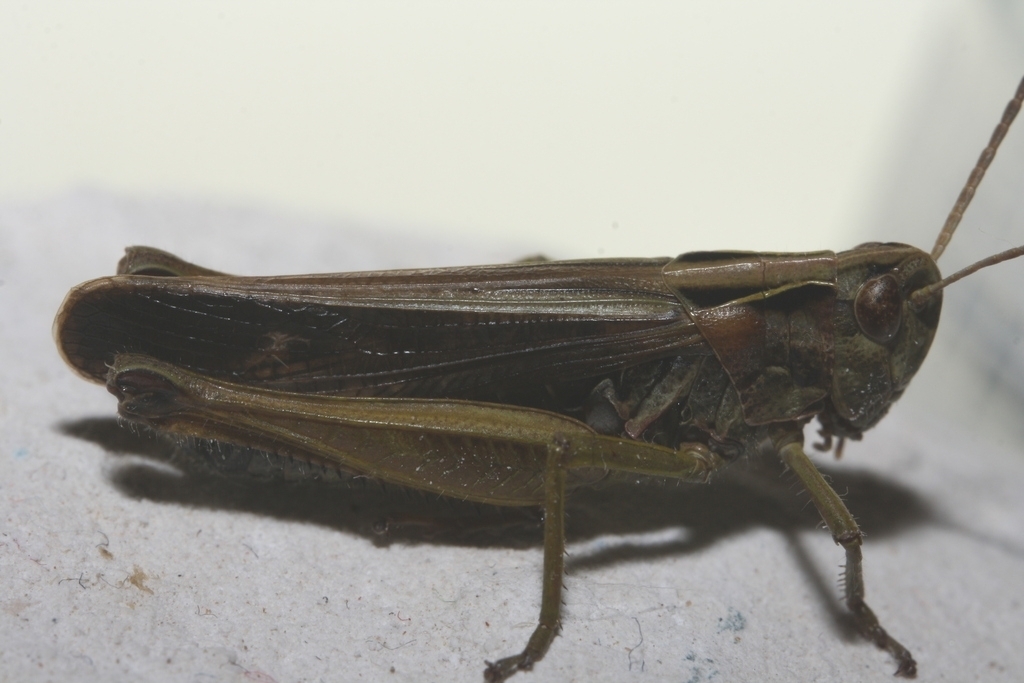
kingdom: Animalia
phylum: Arthropoda
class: Insecta
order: Orthoptera
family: Acrididae
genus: Omocestus
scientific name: Omocestus viridulus
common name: Common green grasshopper
